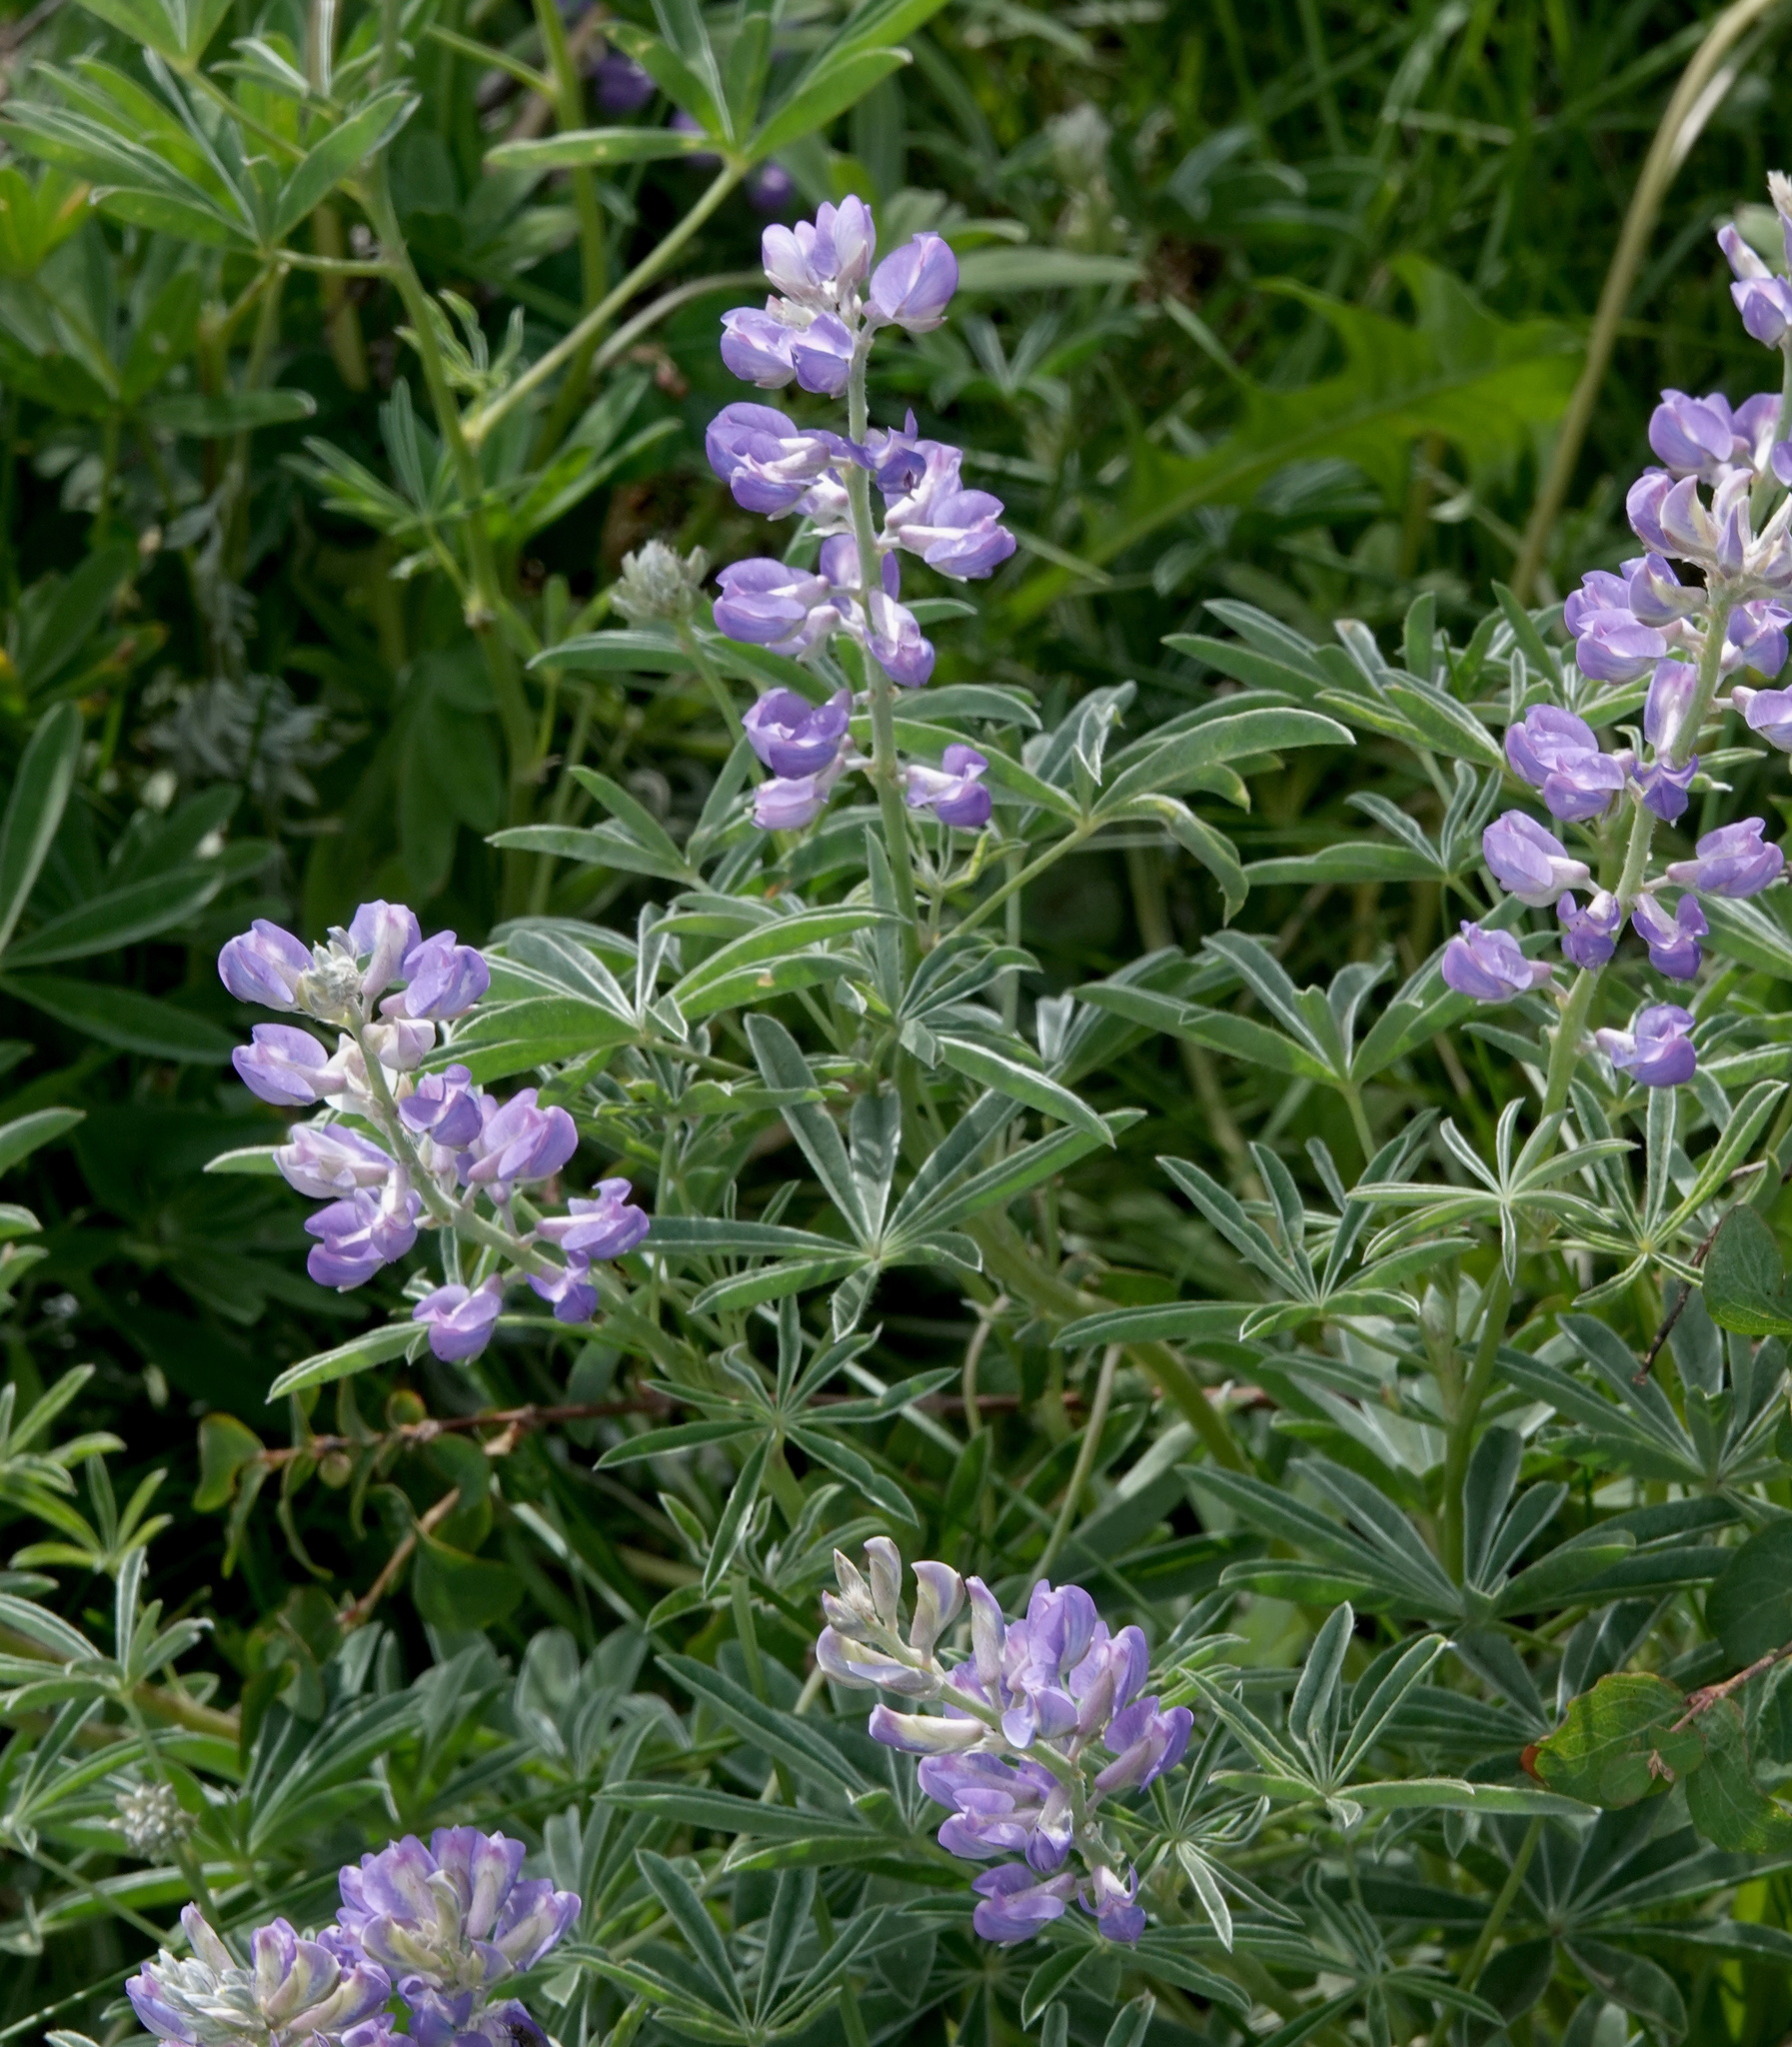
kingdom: Plantae
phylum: Tracheophyta
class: Magnoliopsida
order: Fabales
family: Fabaceae
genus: Lupinus
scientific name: Lupinus argenteus
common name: Silvery lupine
